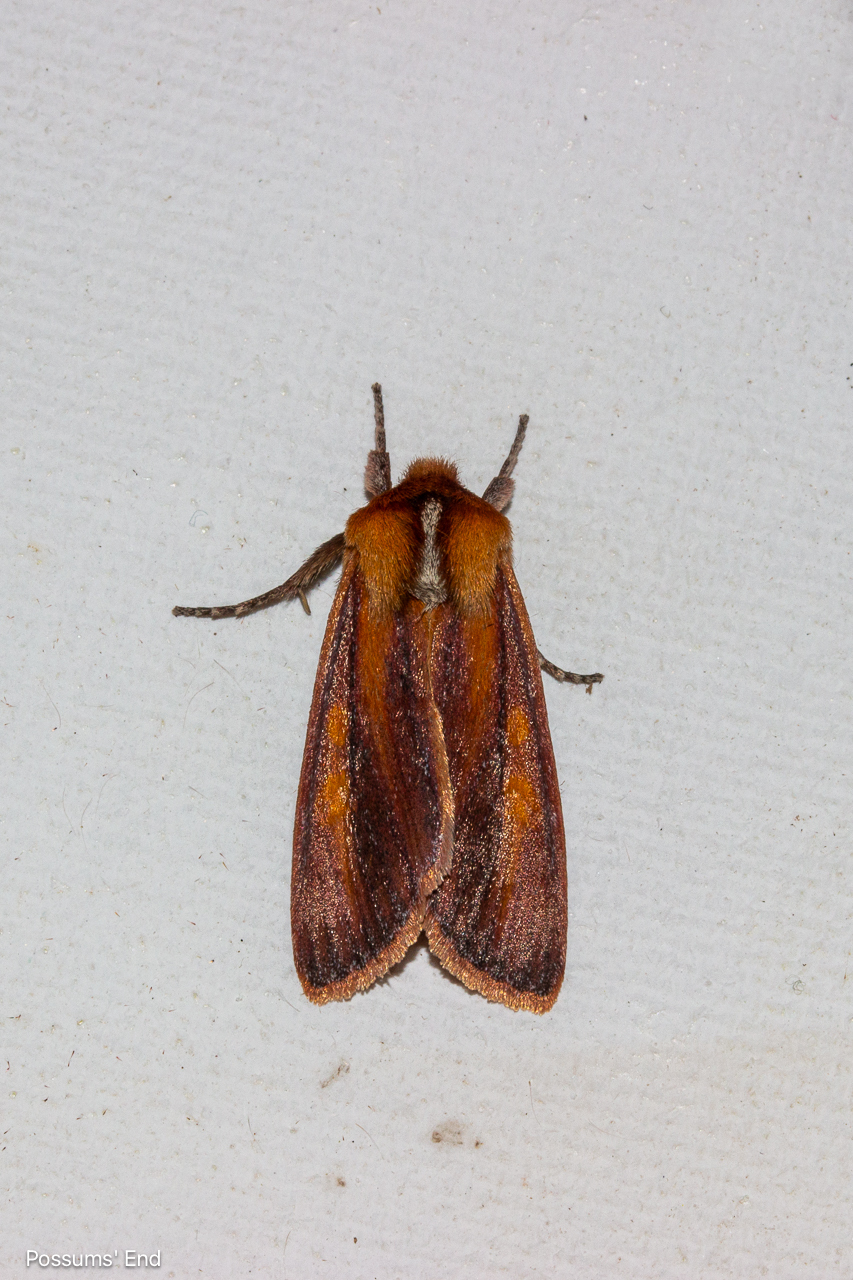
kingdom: Animalia
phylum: Arthropoda
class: Insecta
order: Lepidoptera
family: Noctuidae
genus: Ichneutica
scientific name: Ichneutica
